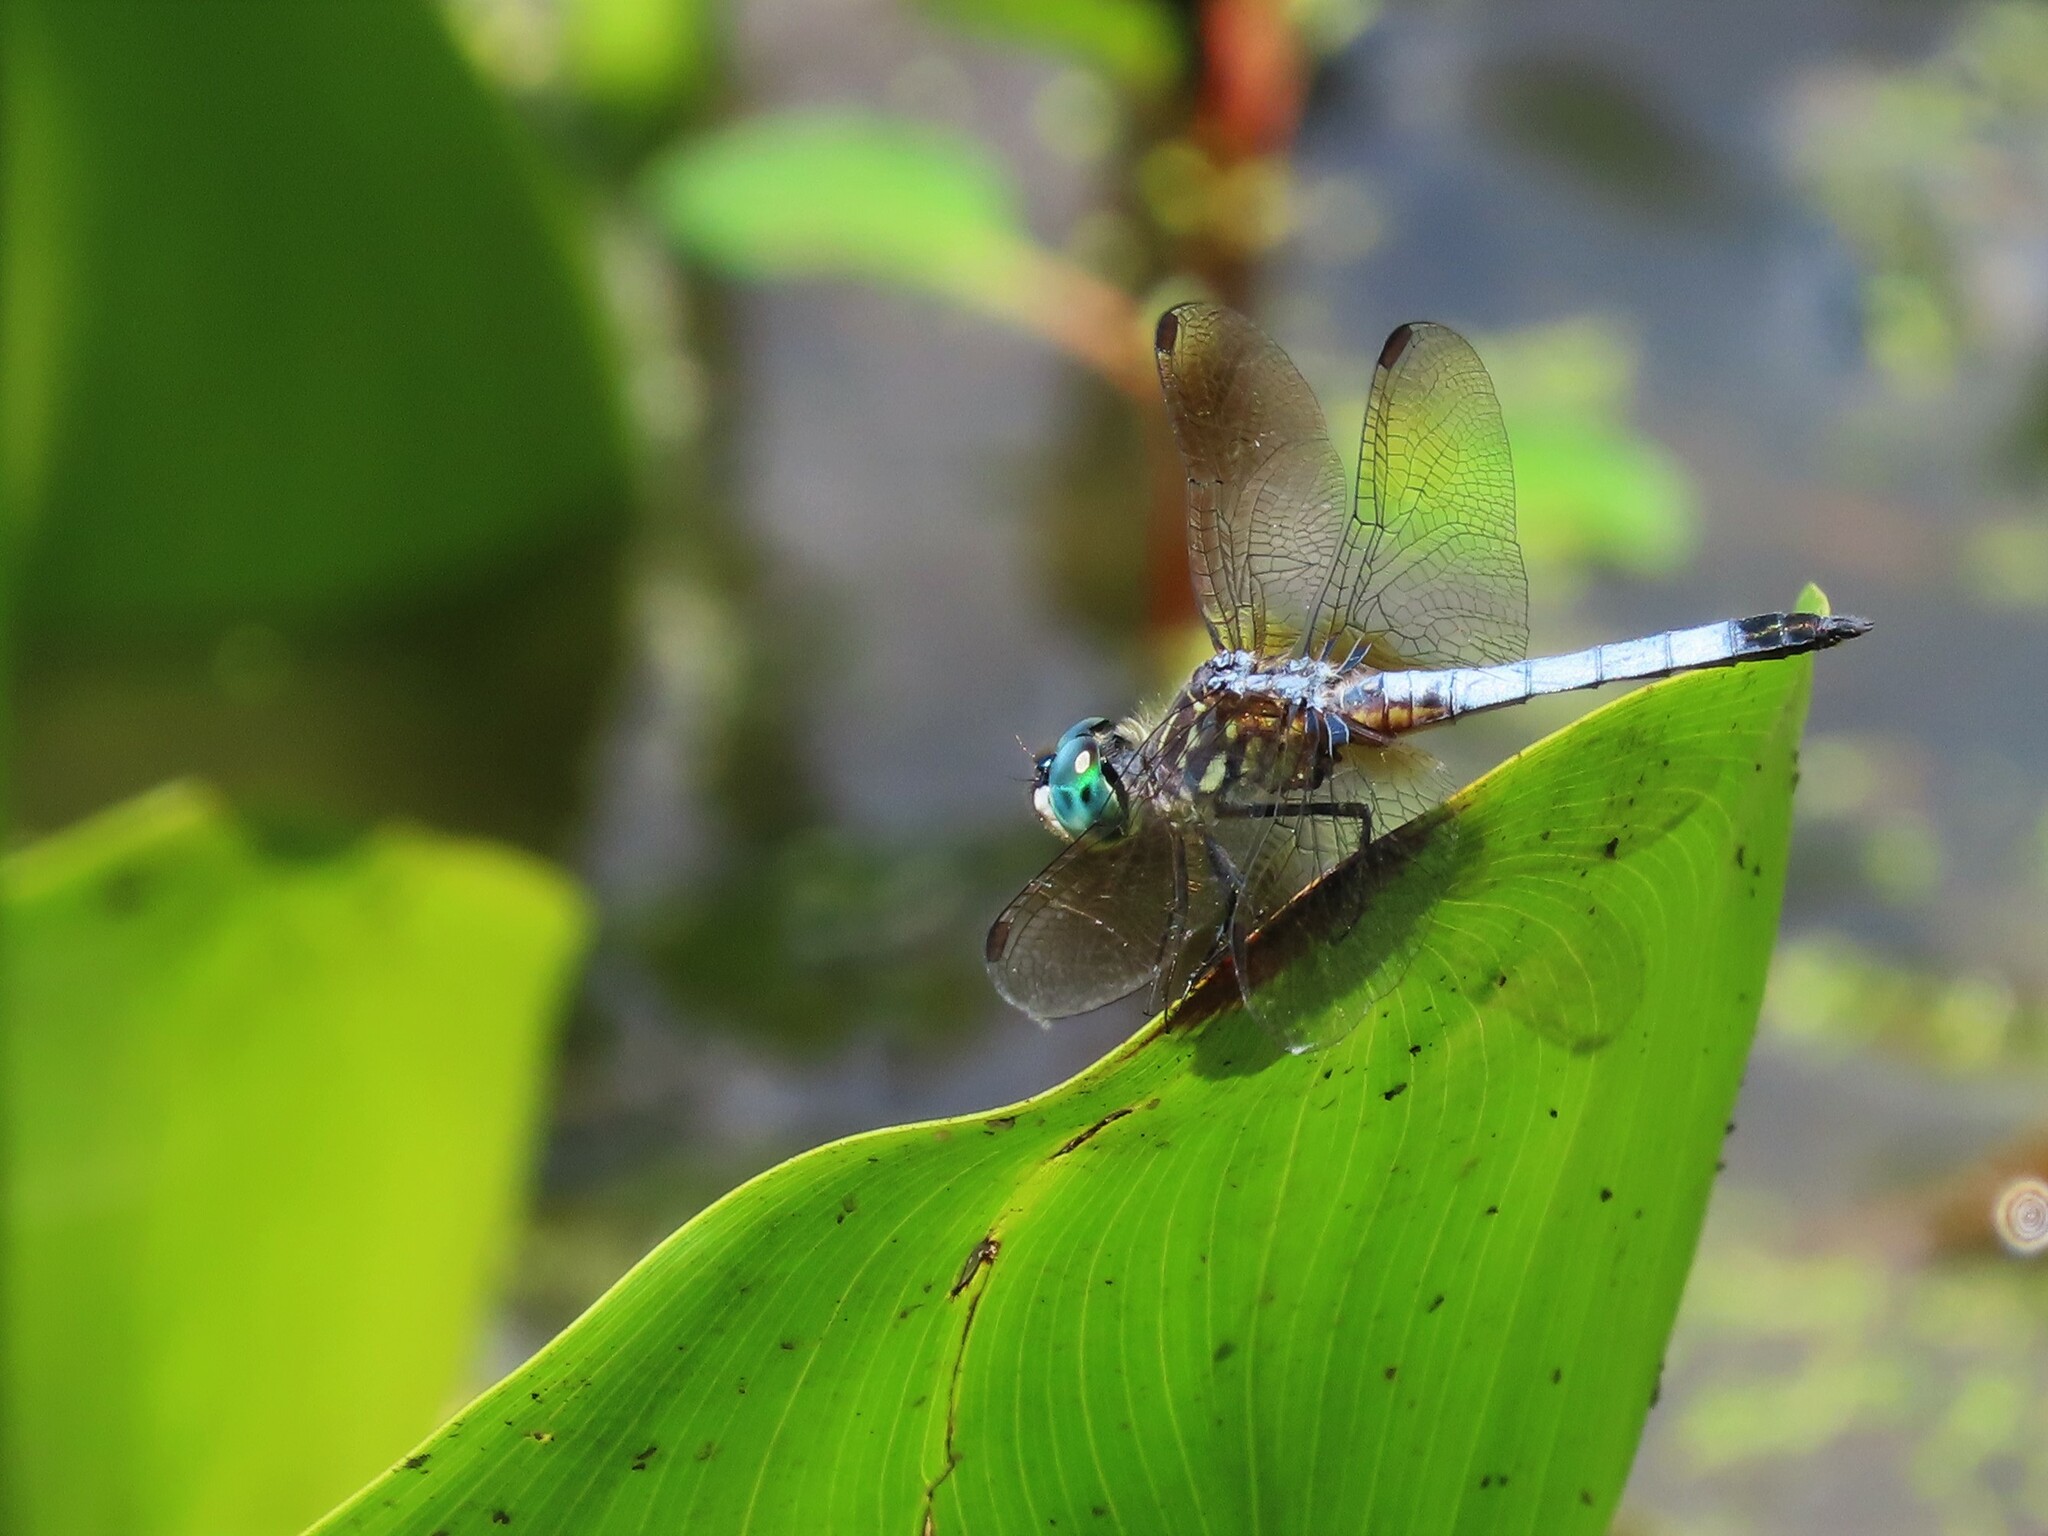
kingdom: Animalia
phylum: Arthropoda
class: Insecta
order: Odonata
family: Libellulidae
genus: Pachydiplax
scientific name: Pachydiplax longipennis
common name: Blue dasher
